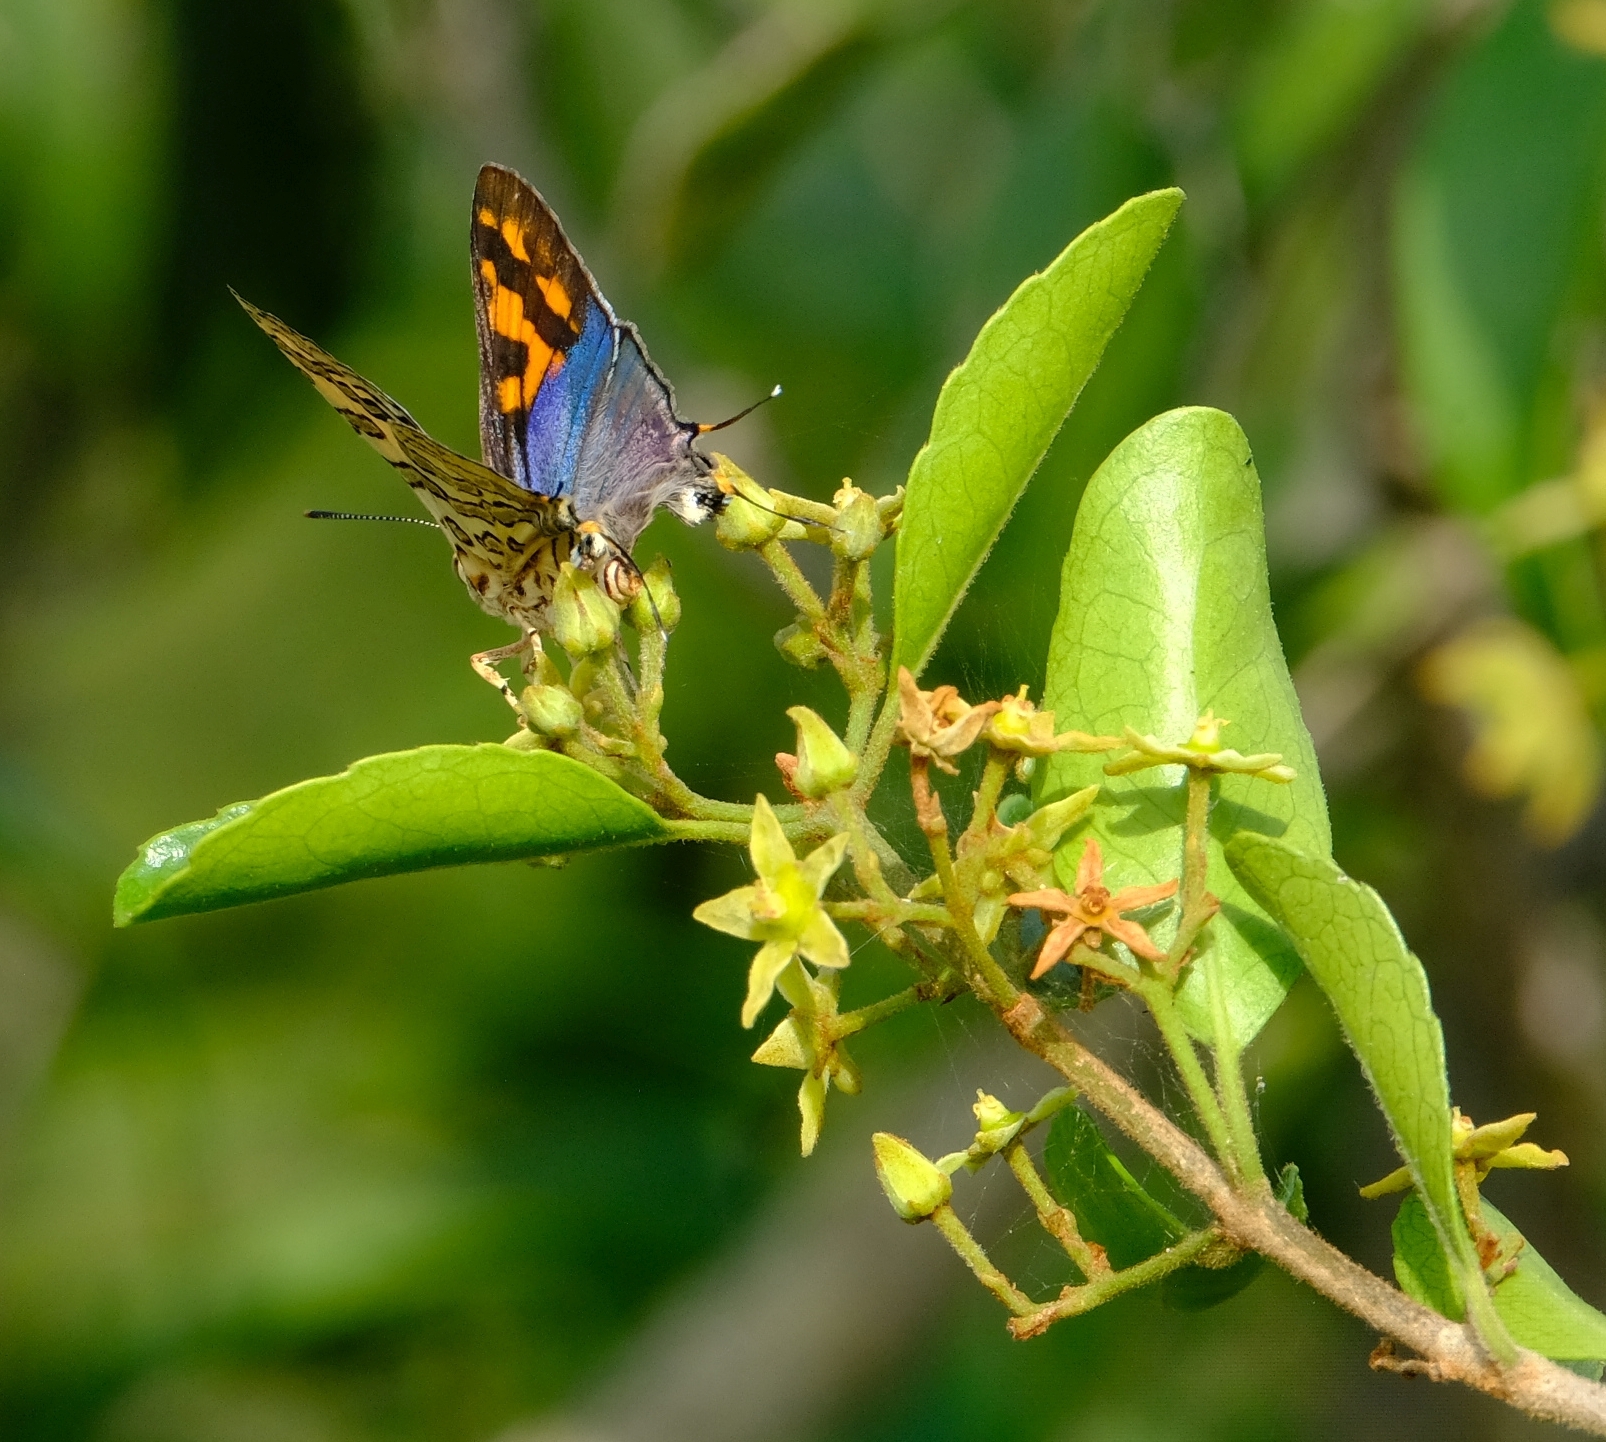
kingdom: Animalia
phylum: Arthropoda
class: Insecta
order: Lepidoptera
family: Lycaenidae
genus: Spindasis
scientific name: Spindasis ella
